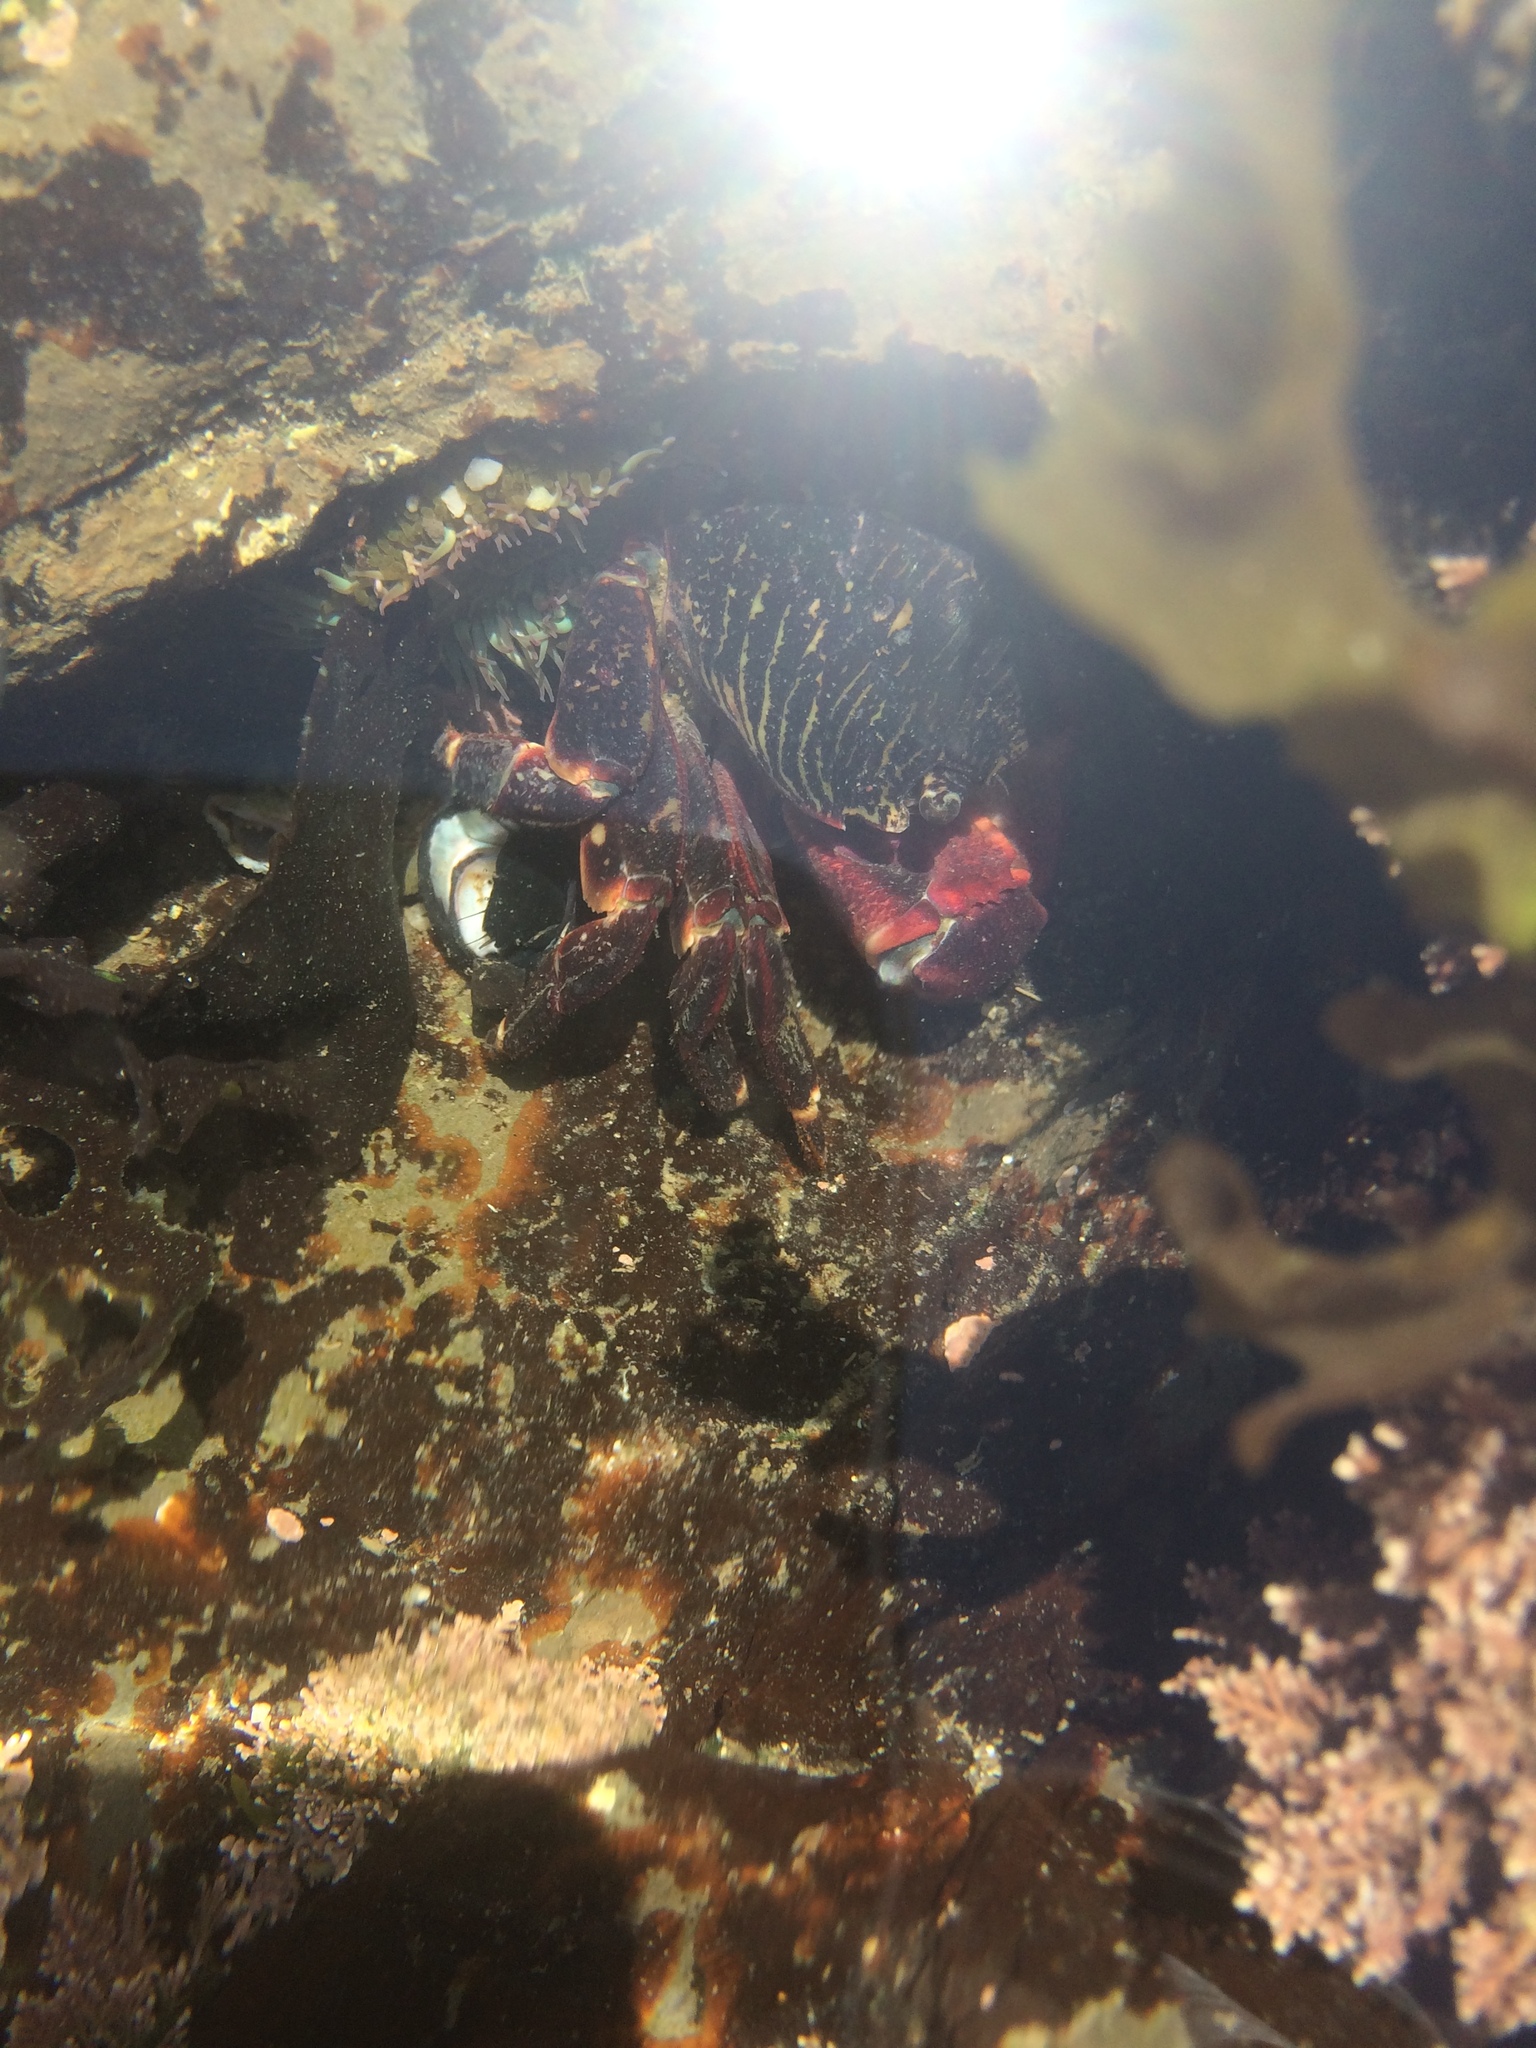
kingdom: Animalia
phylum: Arthropoda
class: Malacostraca
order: Decapoda
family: Grapsidae
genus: Pachygrapsus
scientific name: Pachygrapsus crassipes
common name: Striped shore crab
